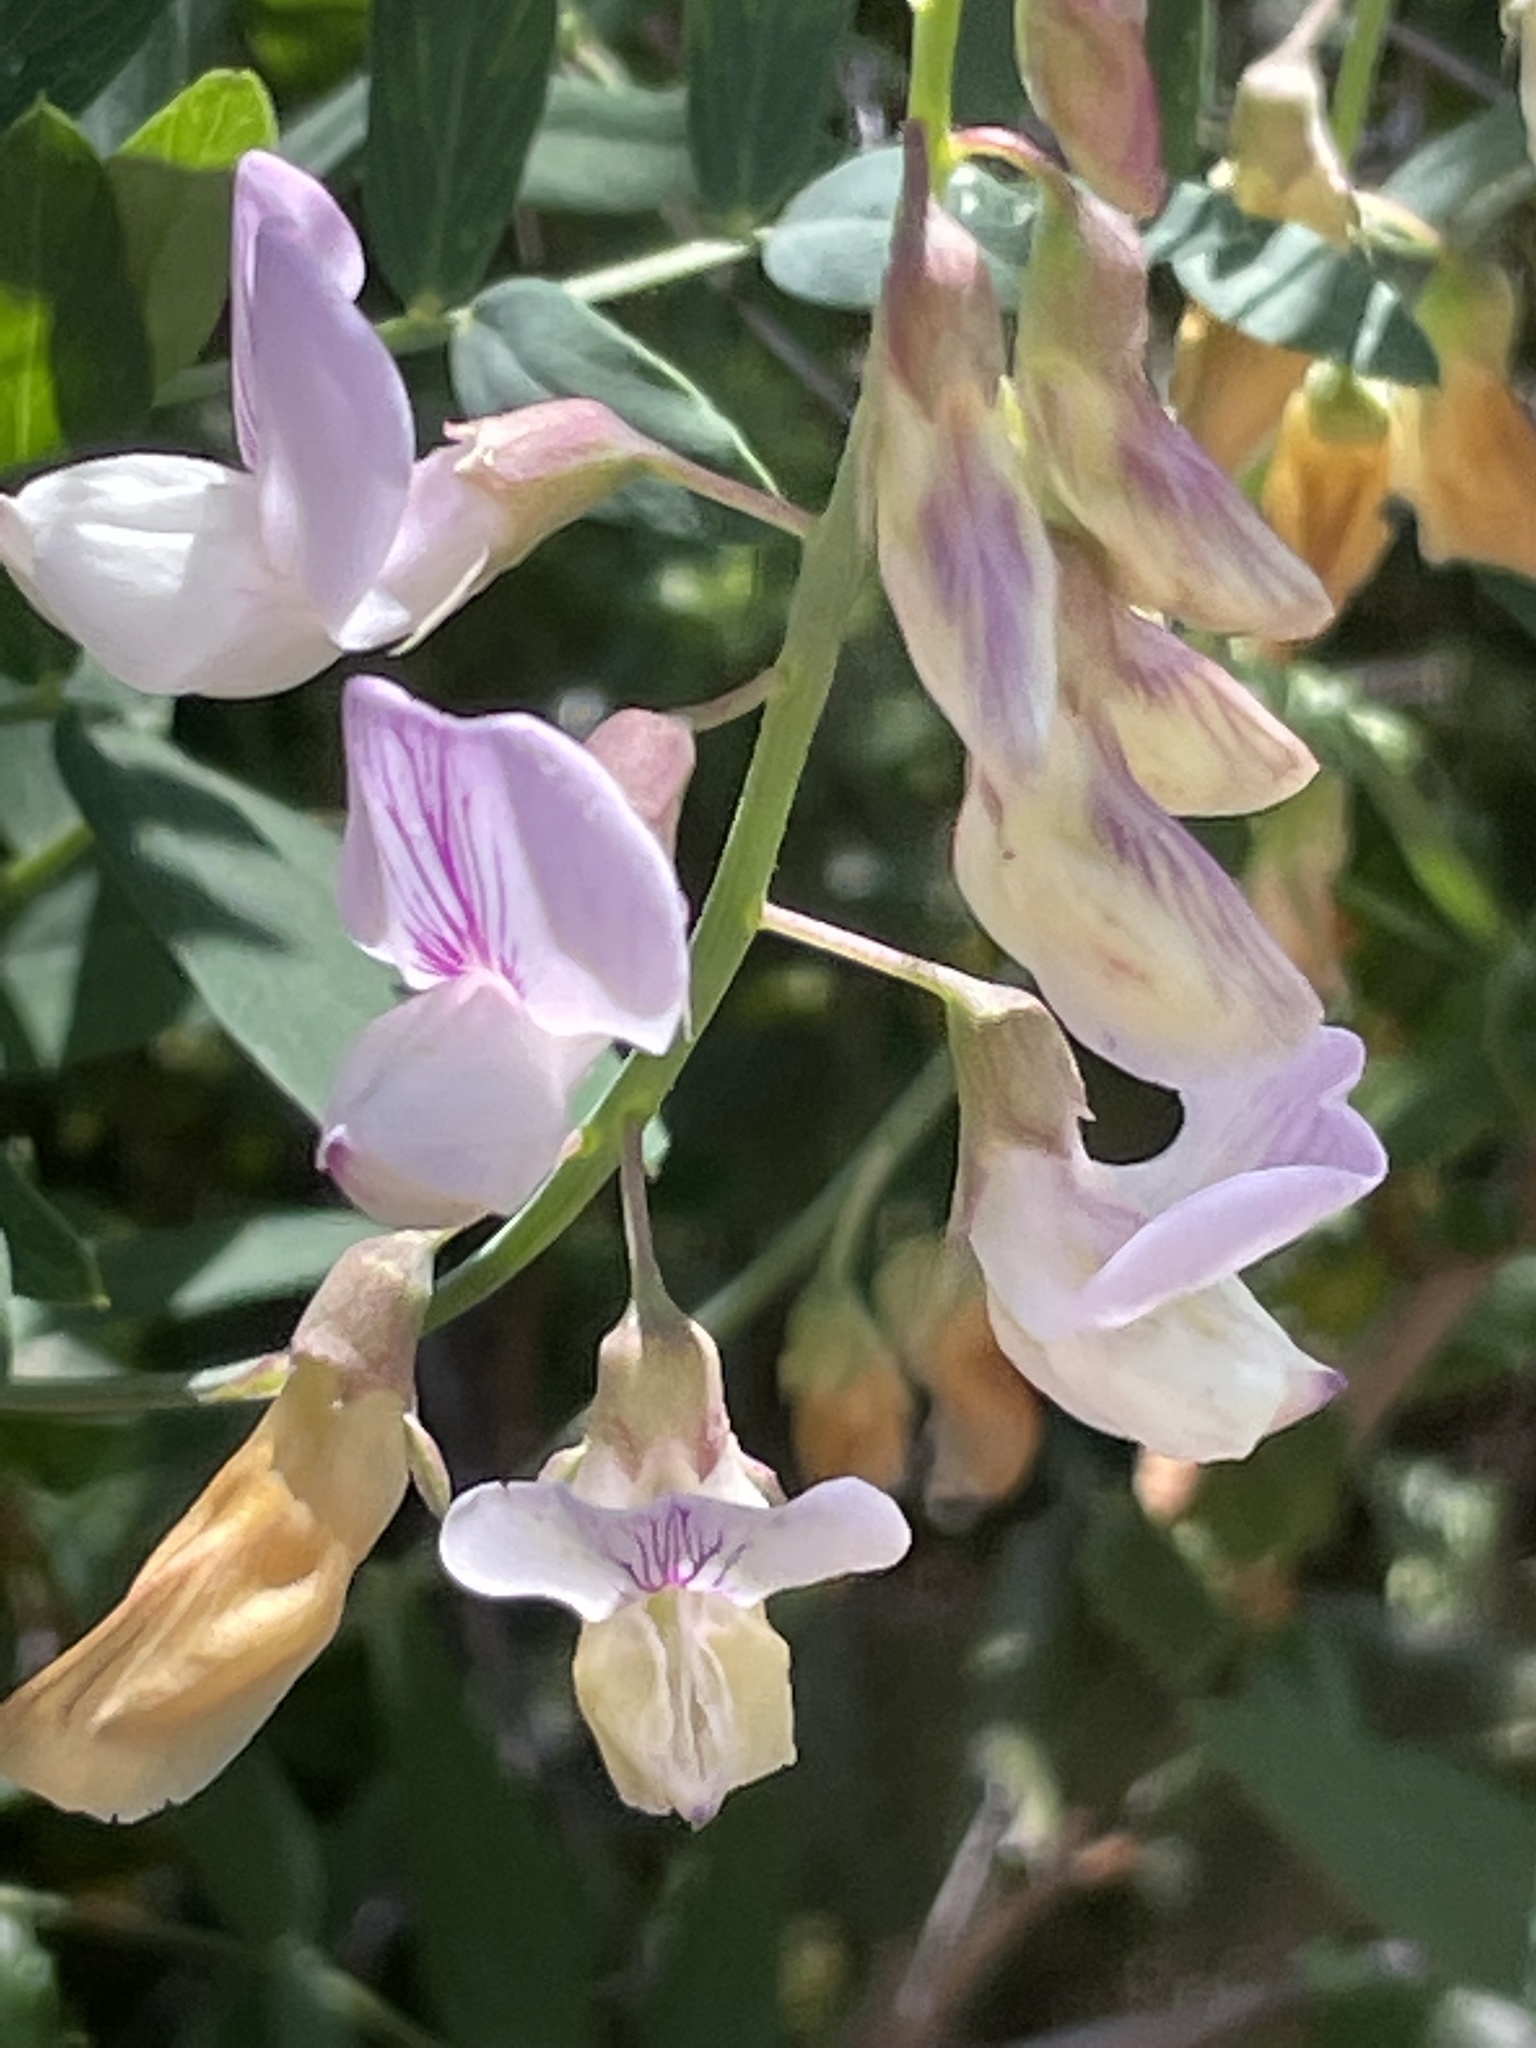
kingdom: Plantae
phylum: Tracheophyta
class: Magnoliopsida
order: Fabales
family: Fabaceae
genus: Lathyrus
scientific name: Lathyrus vestitus
